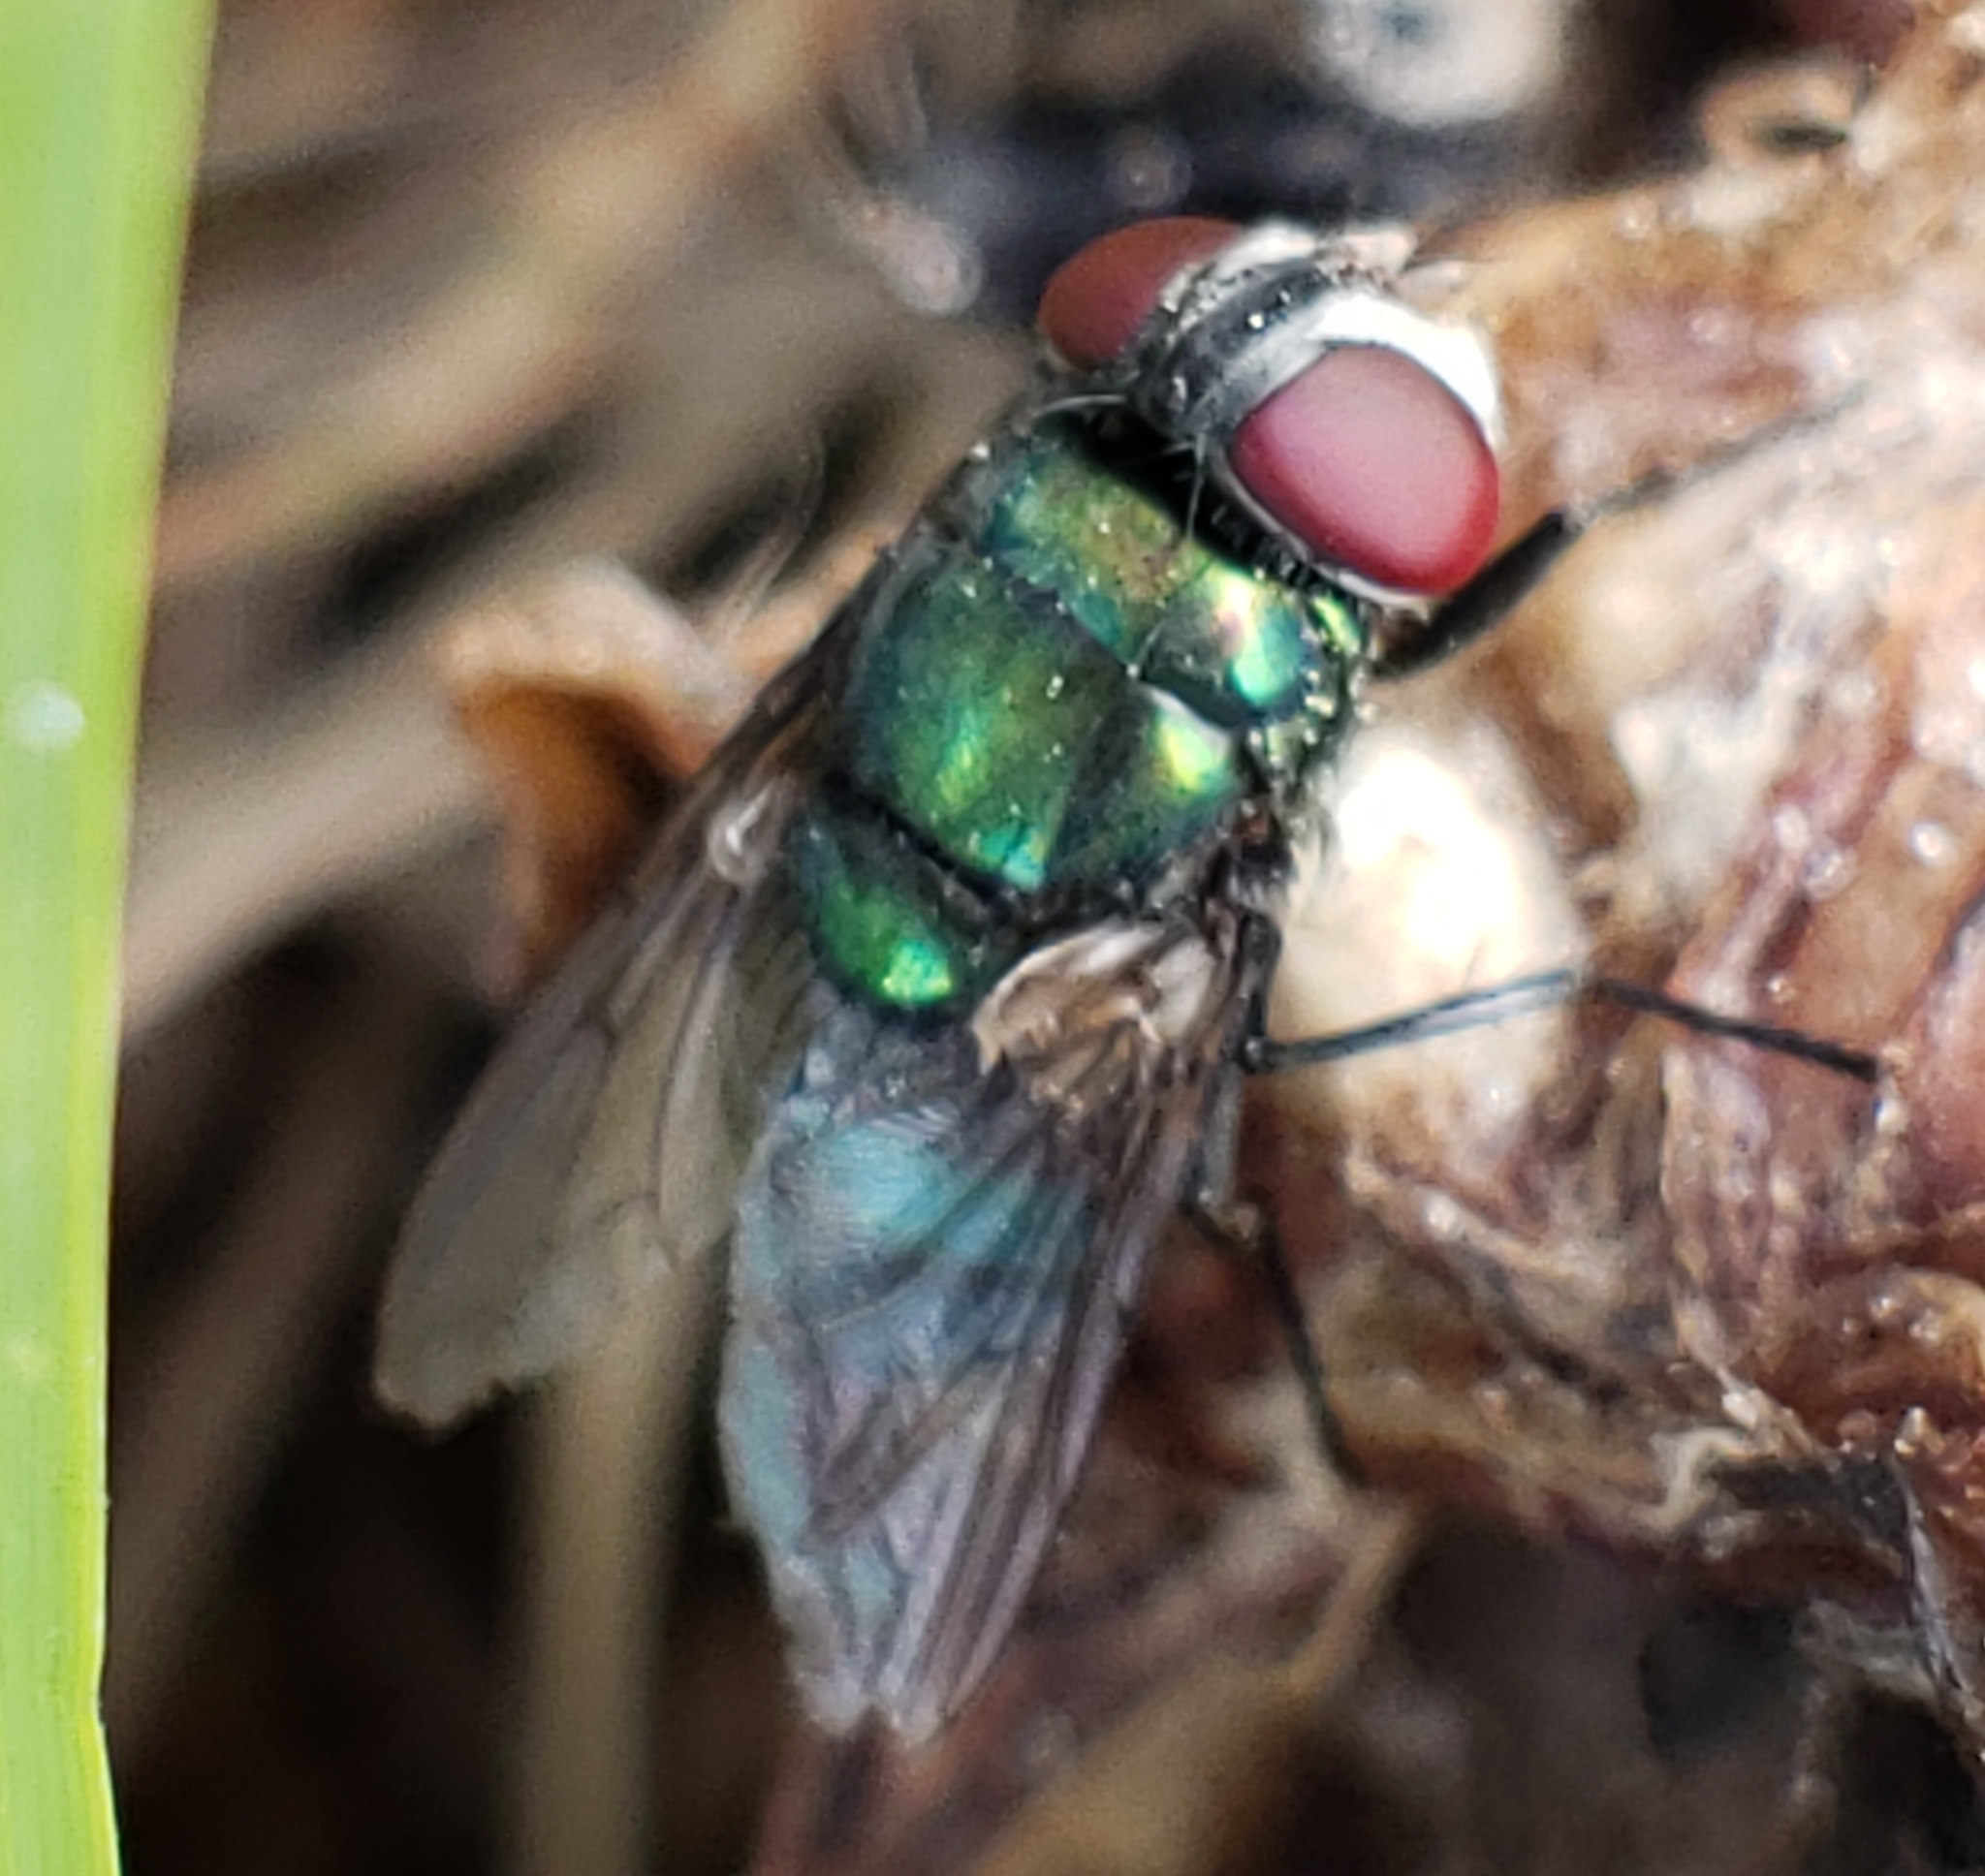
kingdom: Animalia
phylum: Arthropoda
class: Insecta
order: Diptera
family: Calliphoridae
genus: Chrysomya
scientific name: Chrysomya rufifacies
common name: Blow fly
